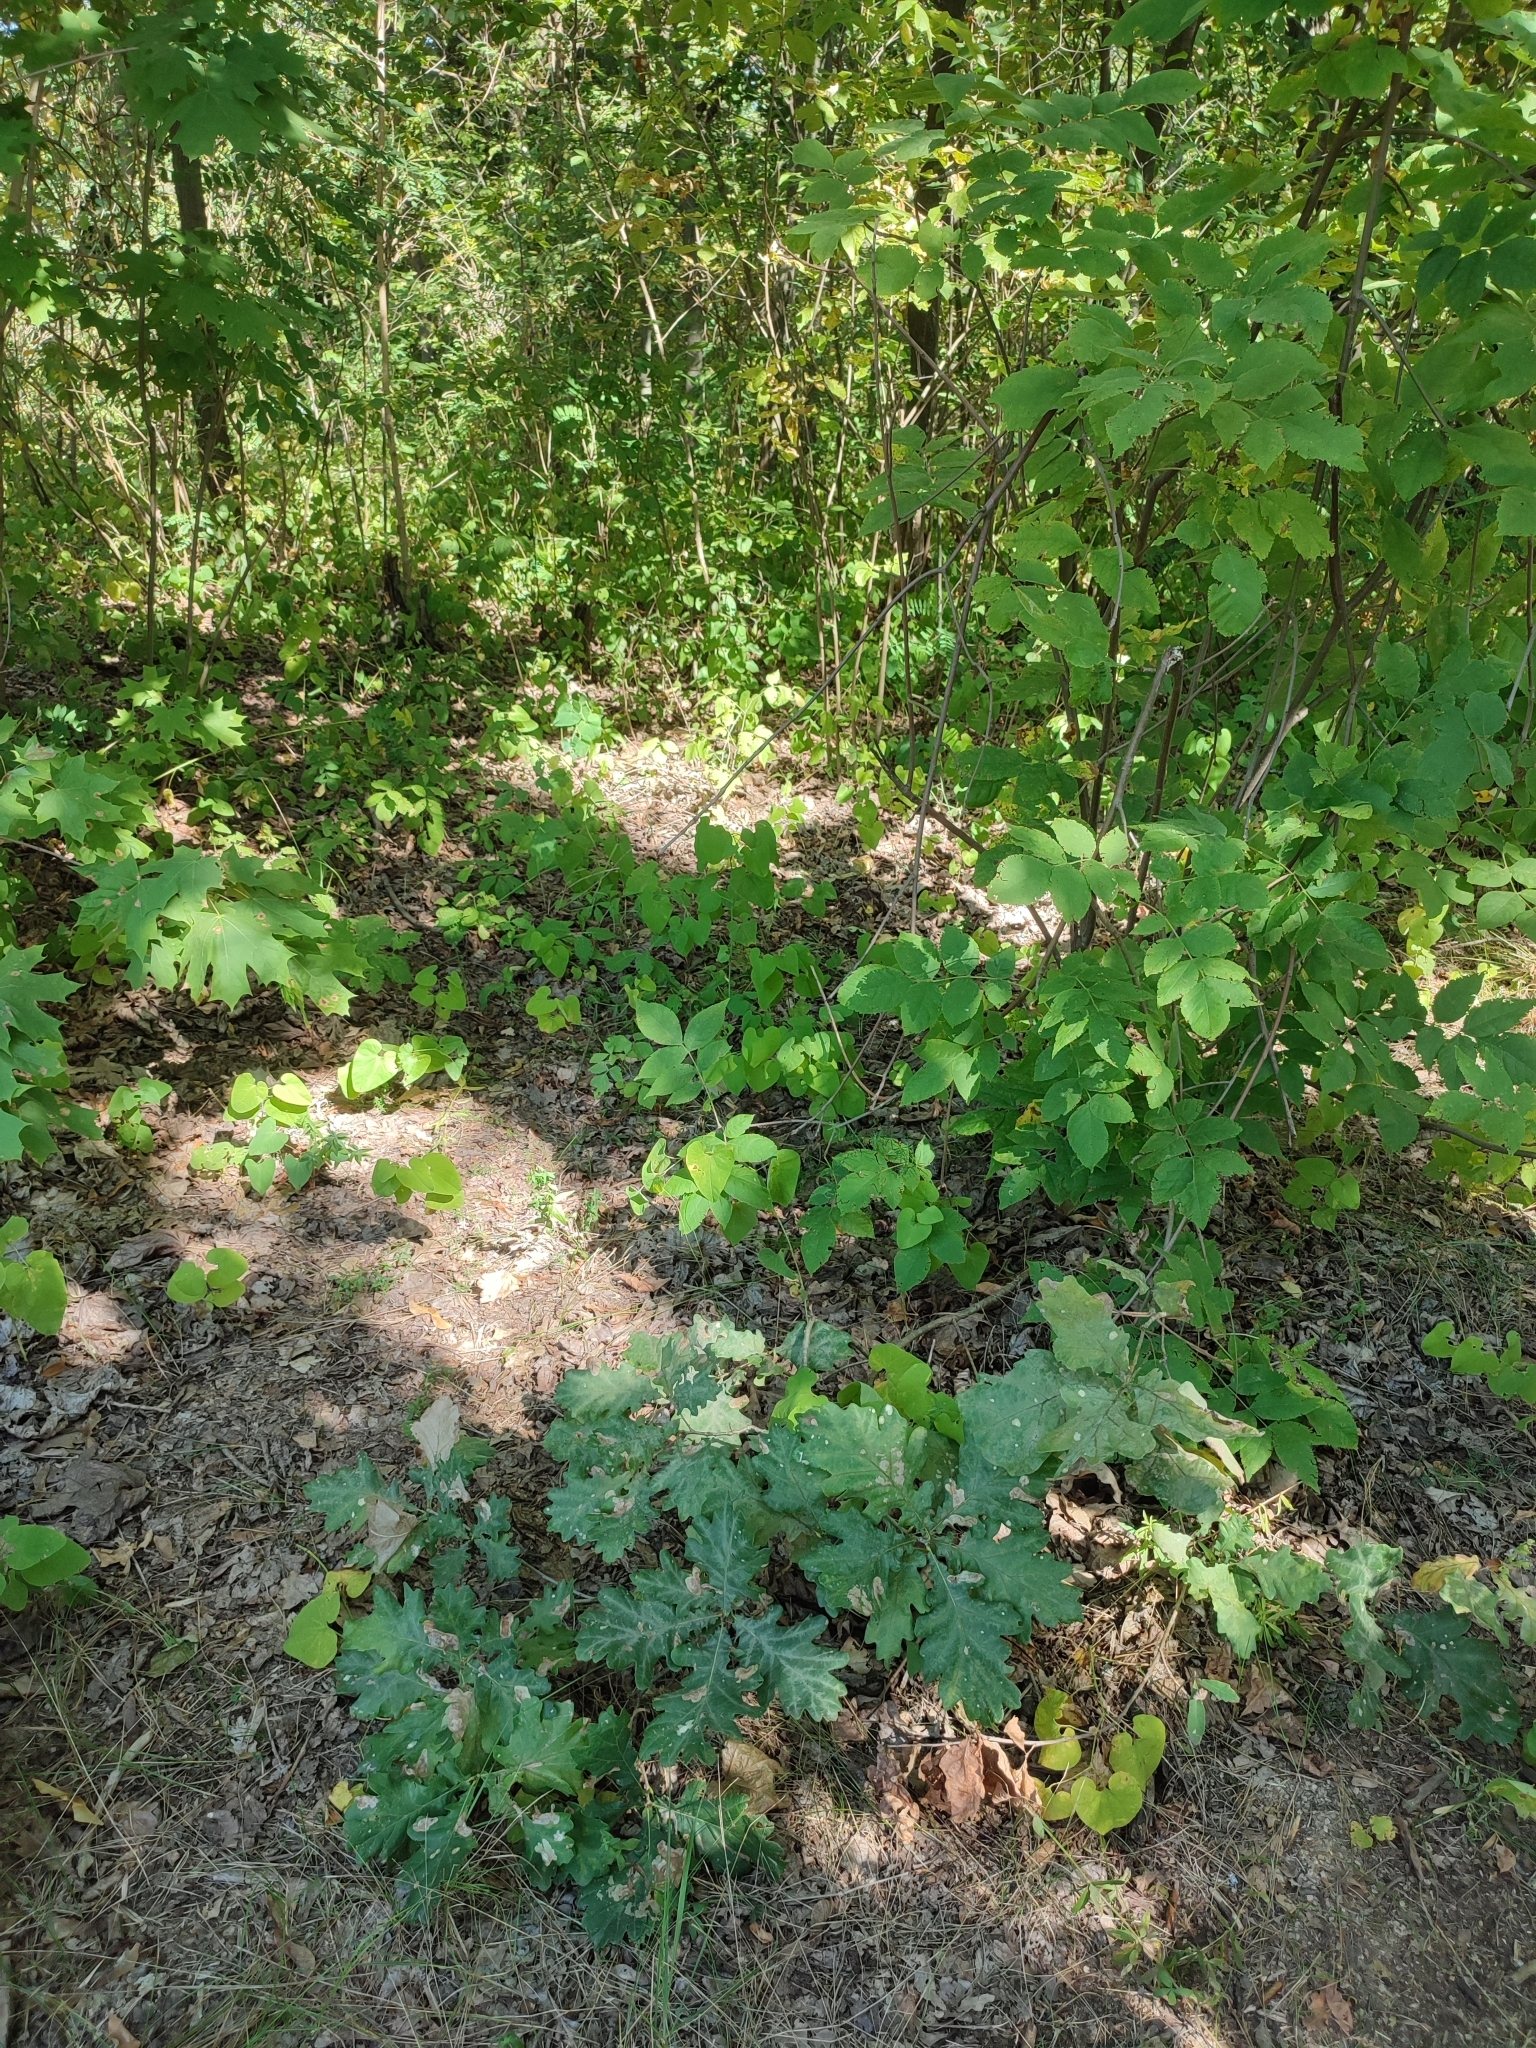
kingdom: Plantae
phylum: Tracheophyta
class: Magnoliopsida
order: Fagales
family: Fagaceae
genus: Quercus
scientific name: Quercus robur
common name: Pedunculate oak
